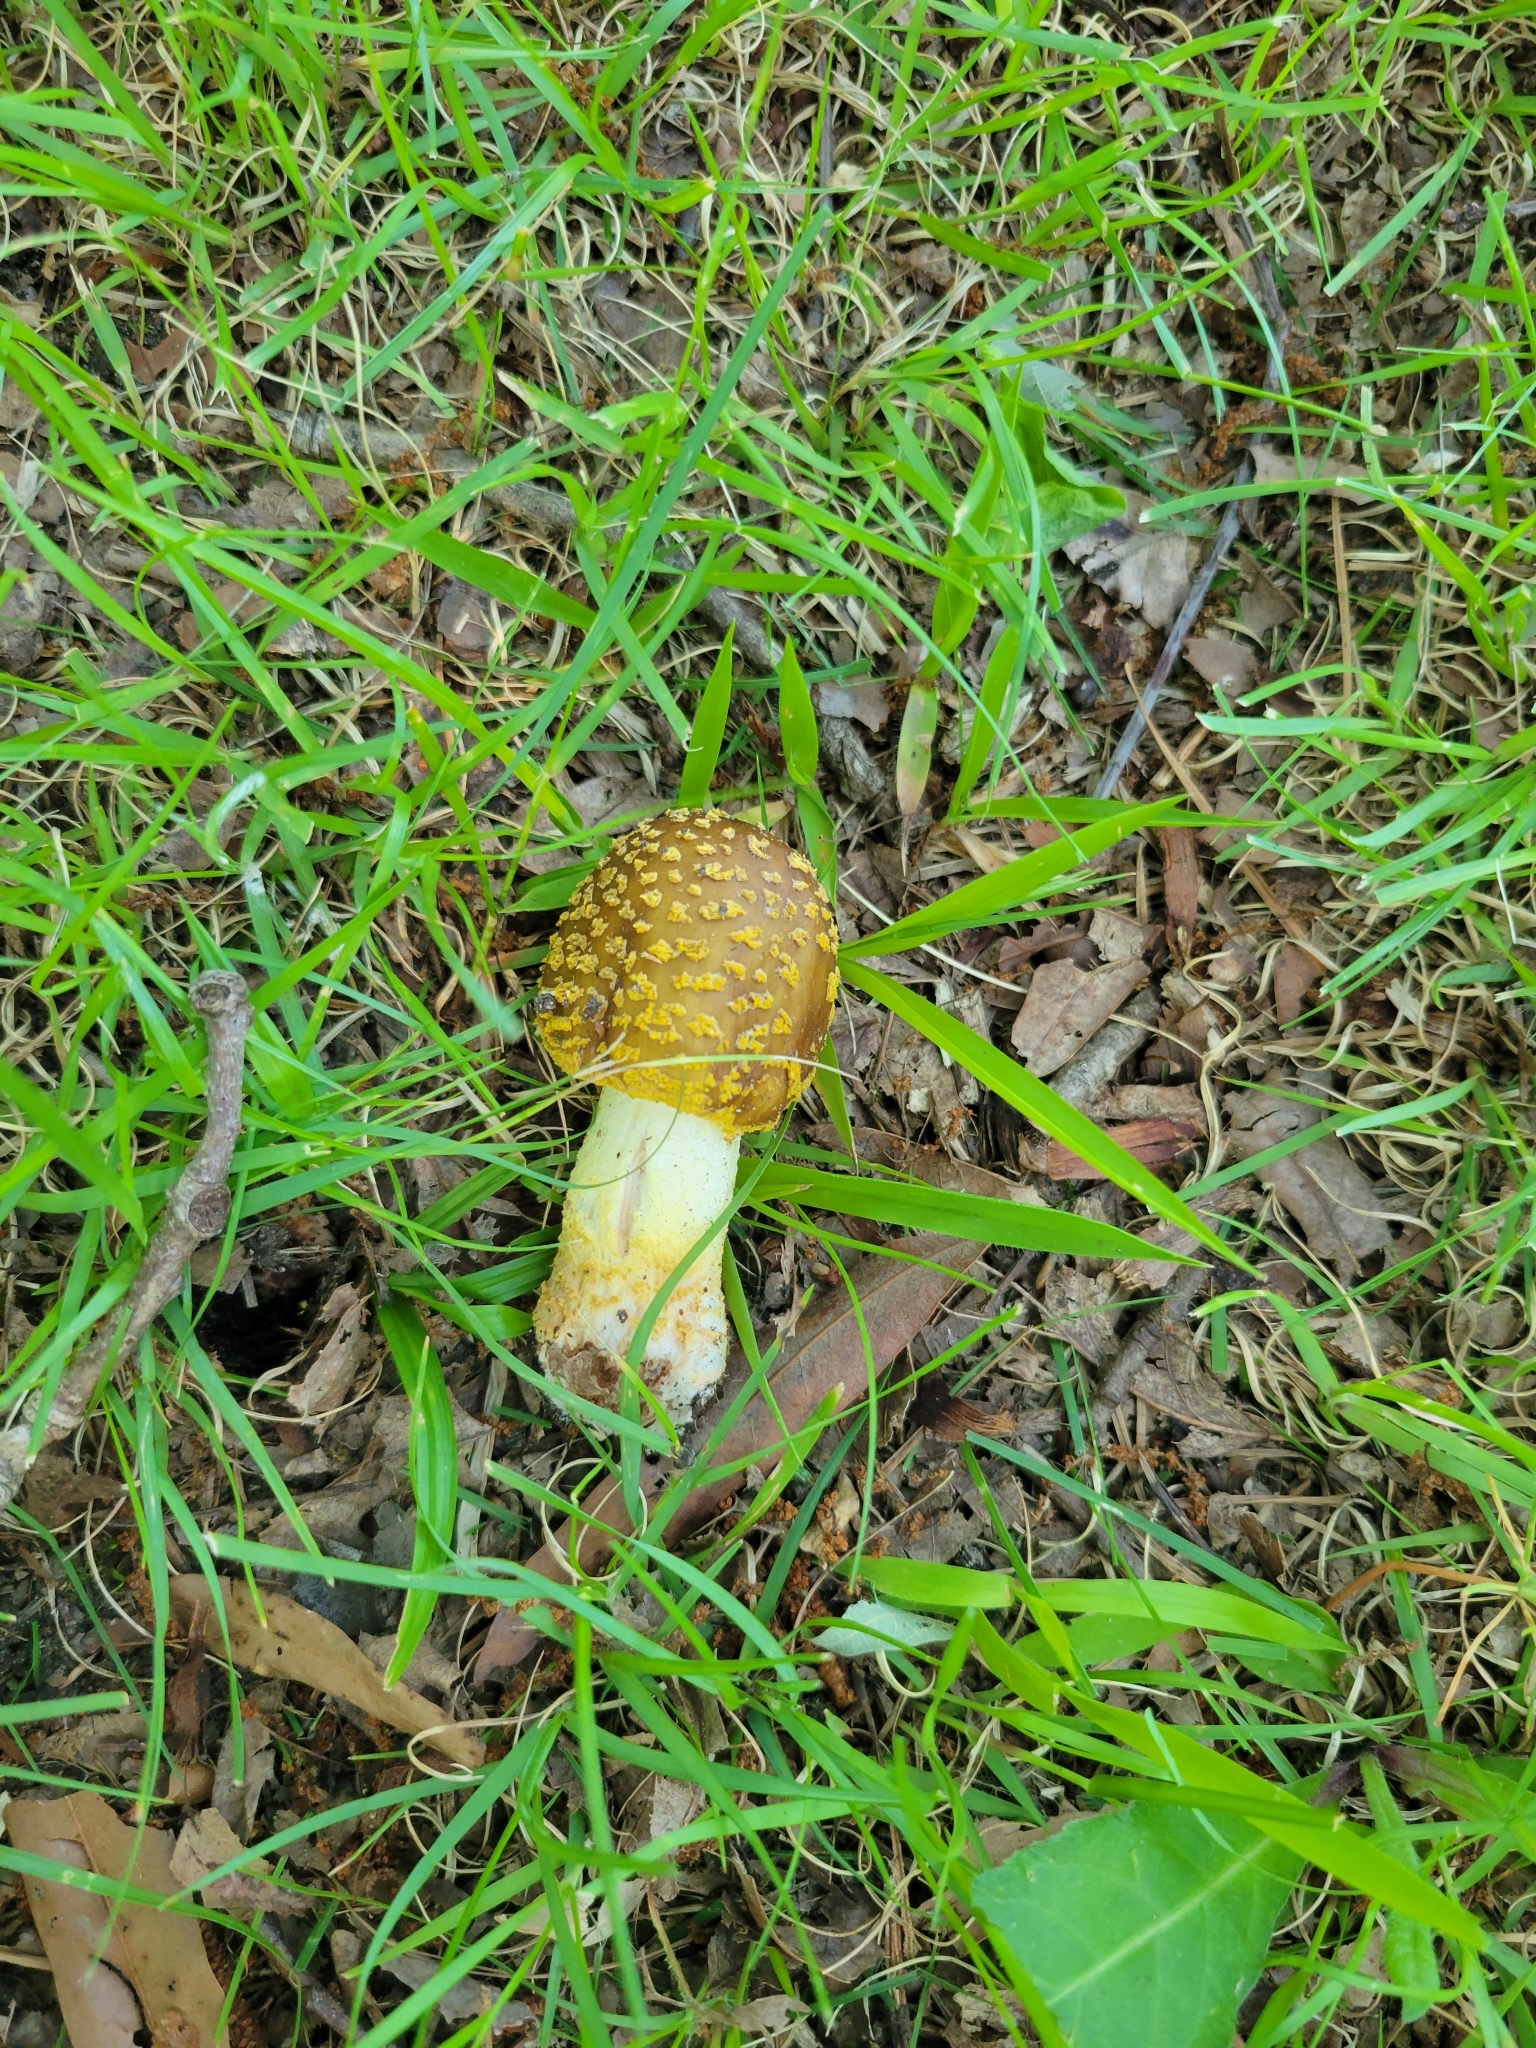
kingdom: Fungi
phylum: Basidiomycota
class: Agaricomycetes
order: Agaricales
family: Amanitaceae
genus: Amanita
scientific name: Amanita flavorubens
